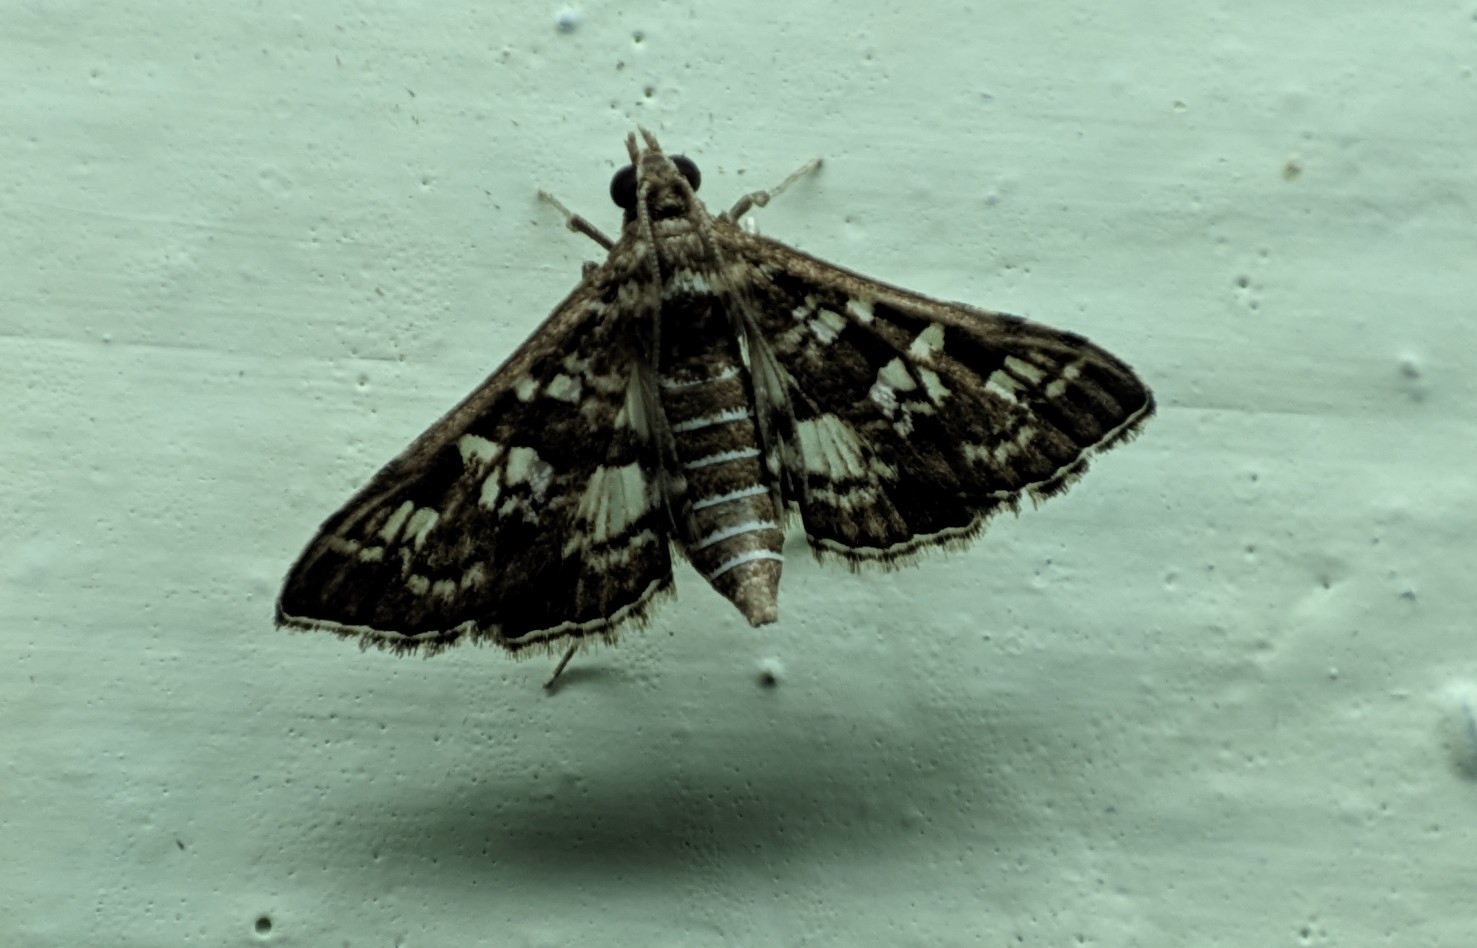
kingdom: Animalia
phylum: Arthropoda
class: Insecta
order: Lepidoptera
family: Crambidae
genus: Sameodes
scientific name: Sameodes cancellalis
